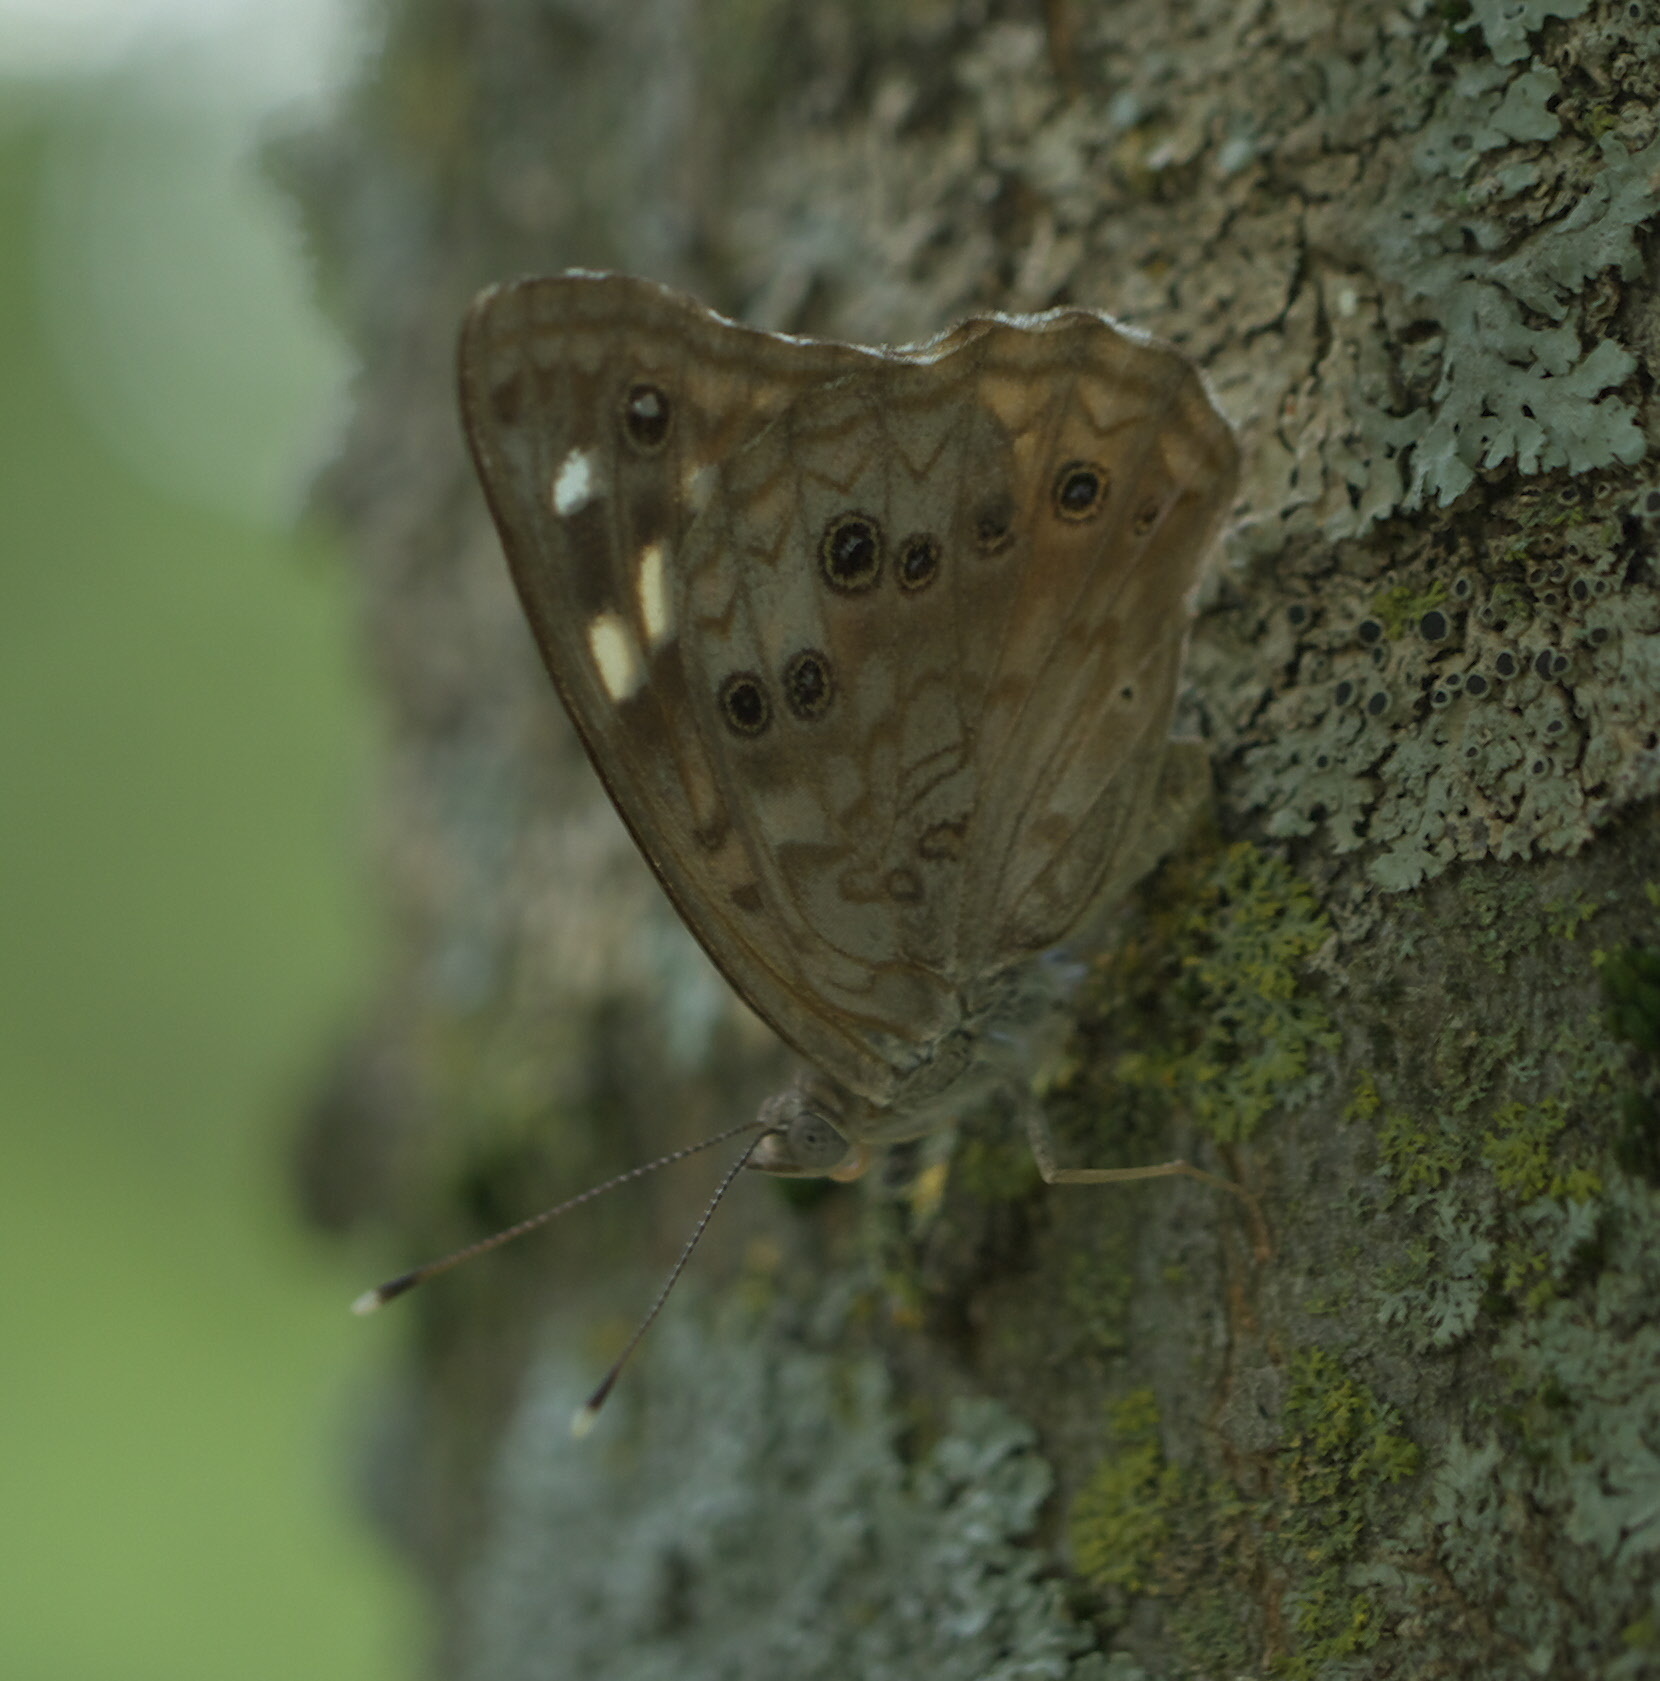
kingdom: Animalia
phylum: Arthropoda
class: Insecta
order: Lepidoptera
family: Nymphalidae
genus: Asterocampa
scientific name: Asterocampa celtis
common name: Hackberry emperor
